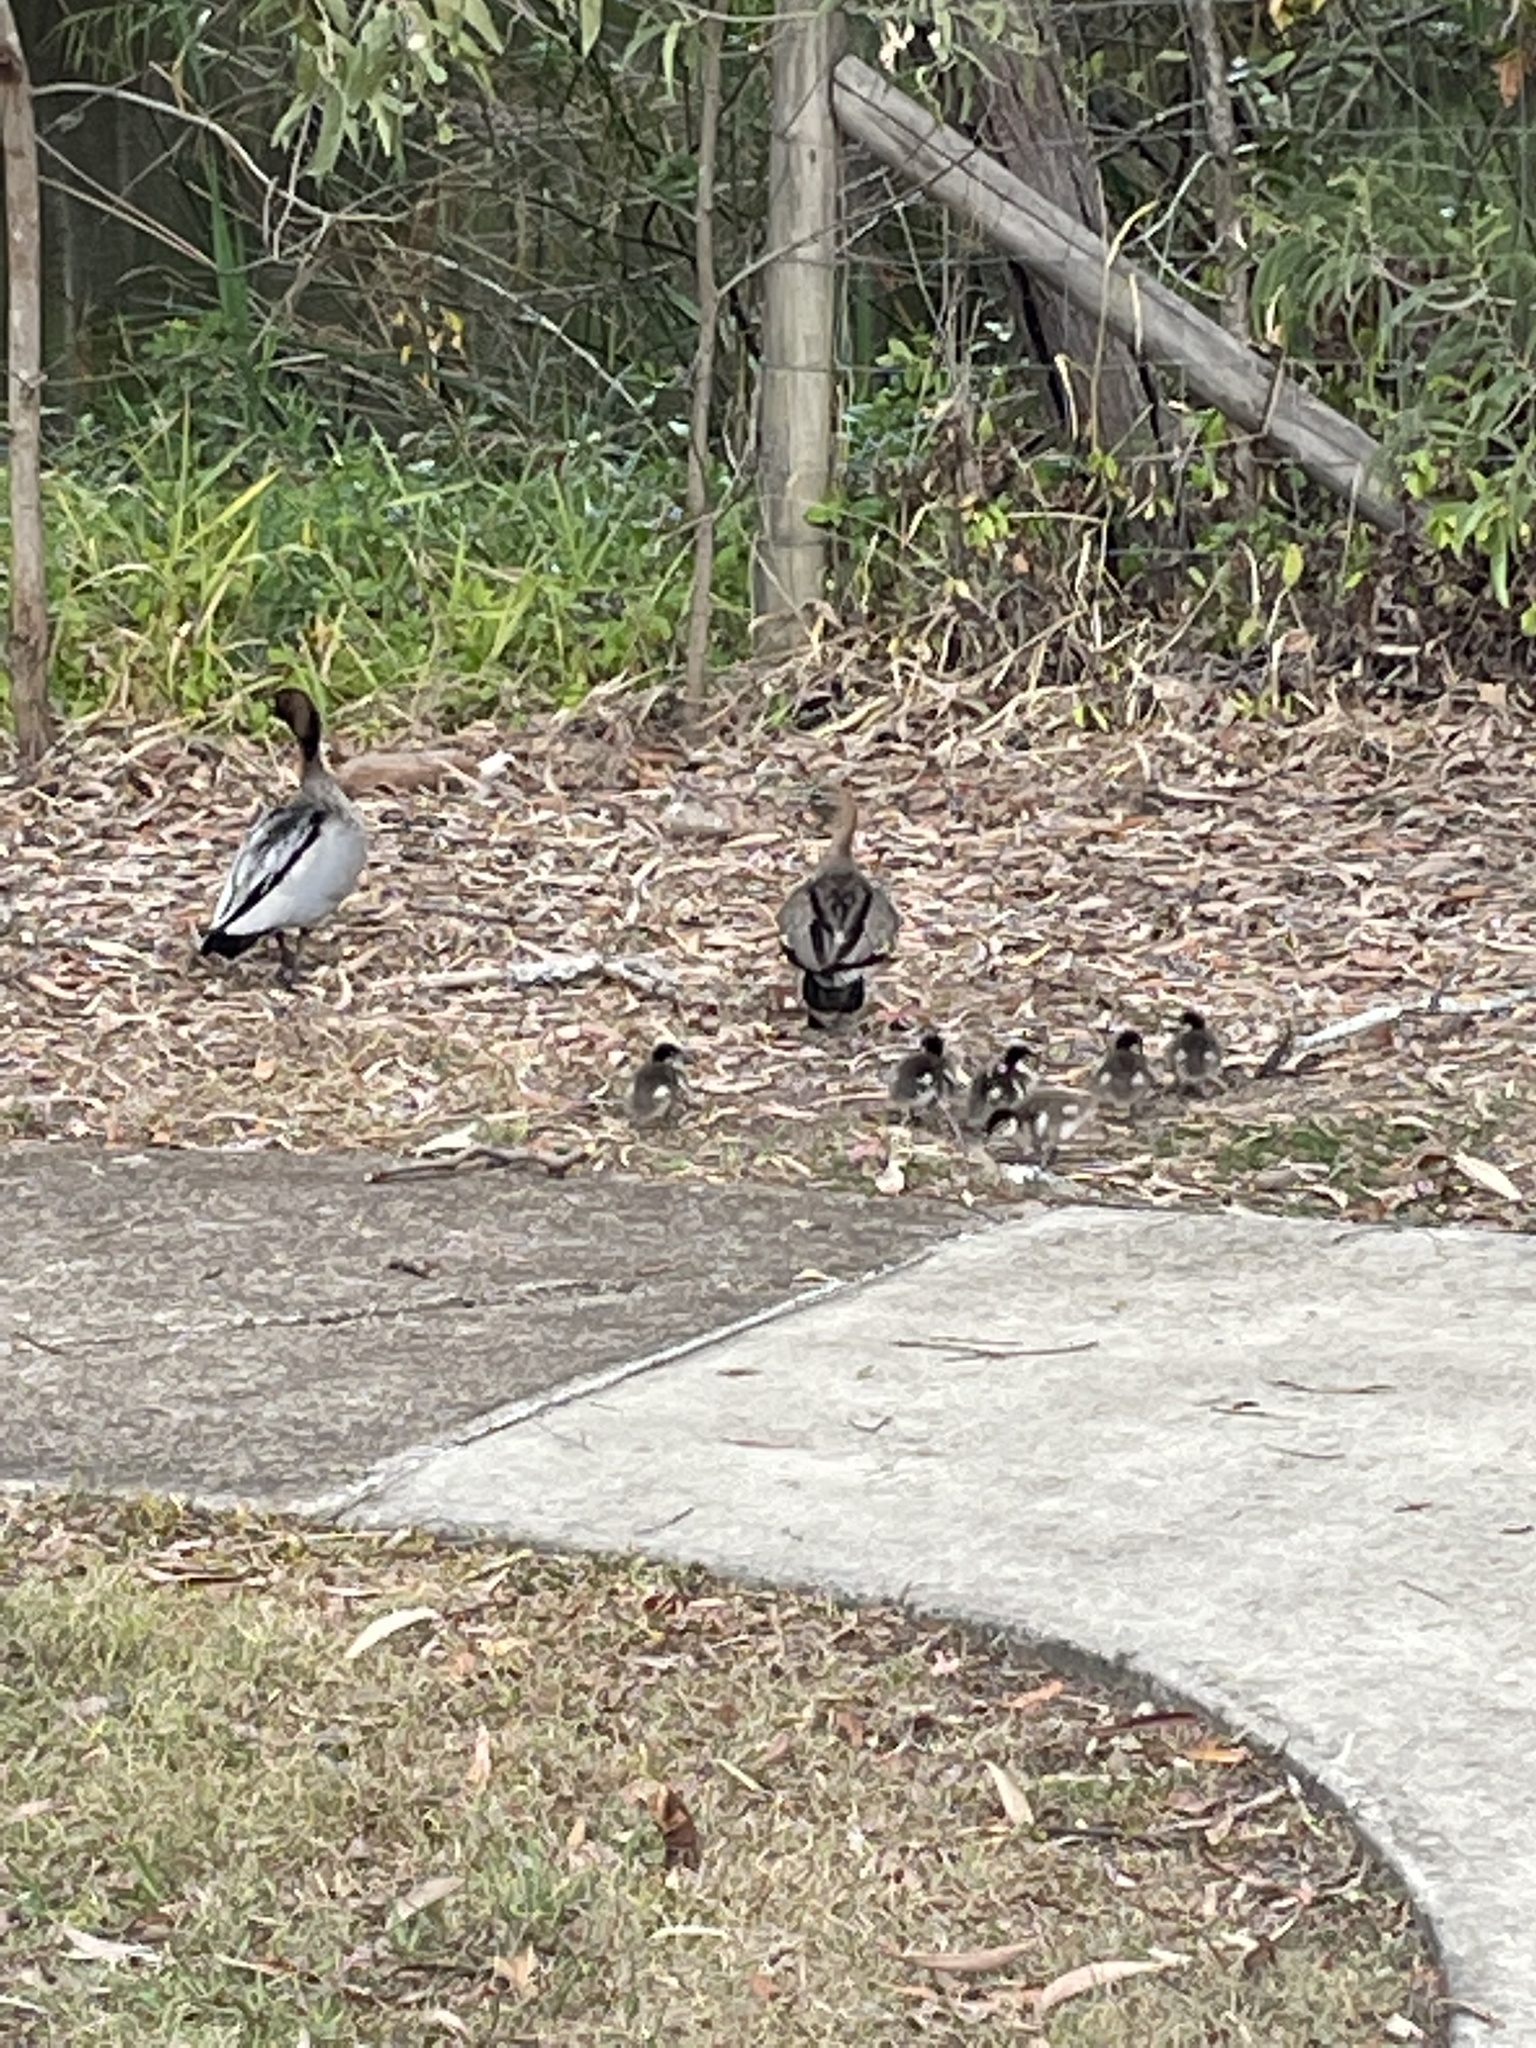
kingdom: Animalia
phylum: Chordata
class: Aves
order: Anseriformes
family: Anatidae
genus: Chenonetta
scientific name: Chenonetta jubata
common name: Maned duck
